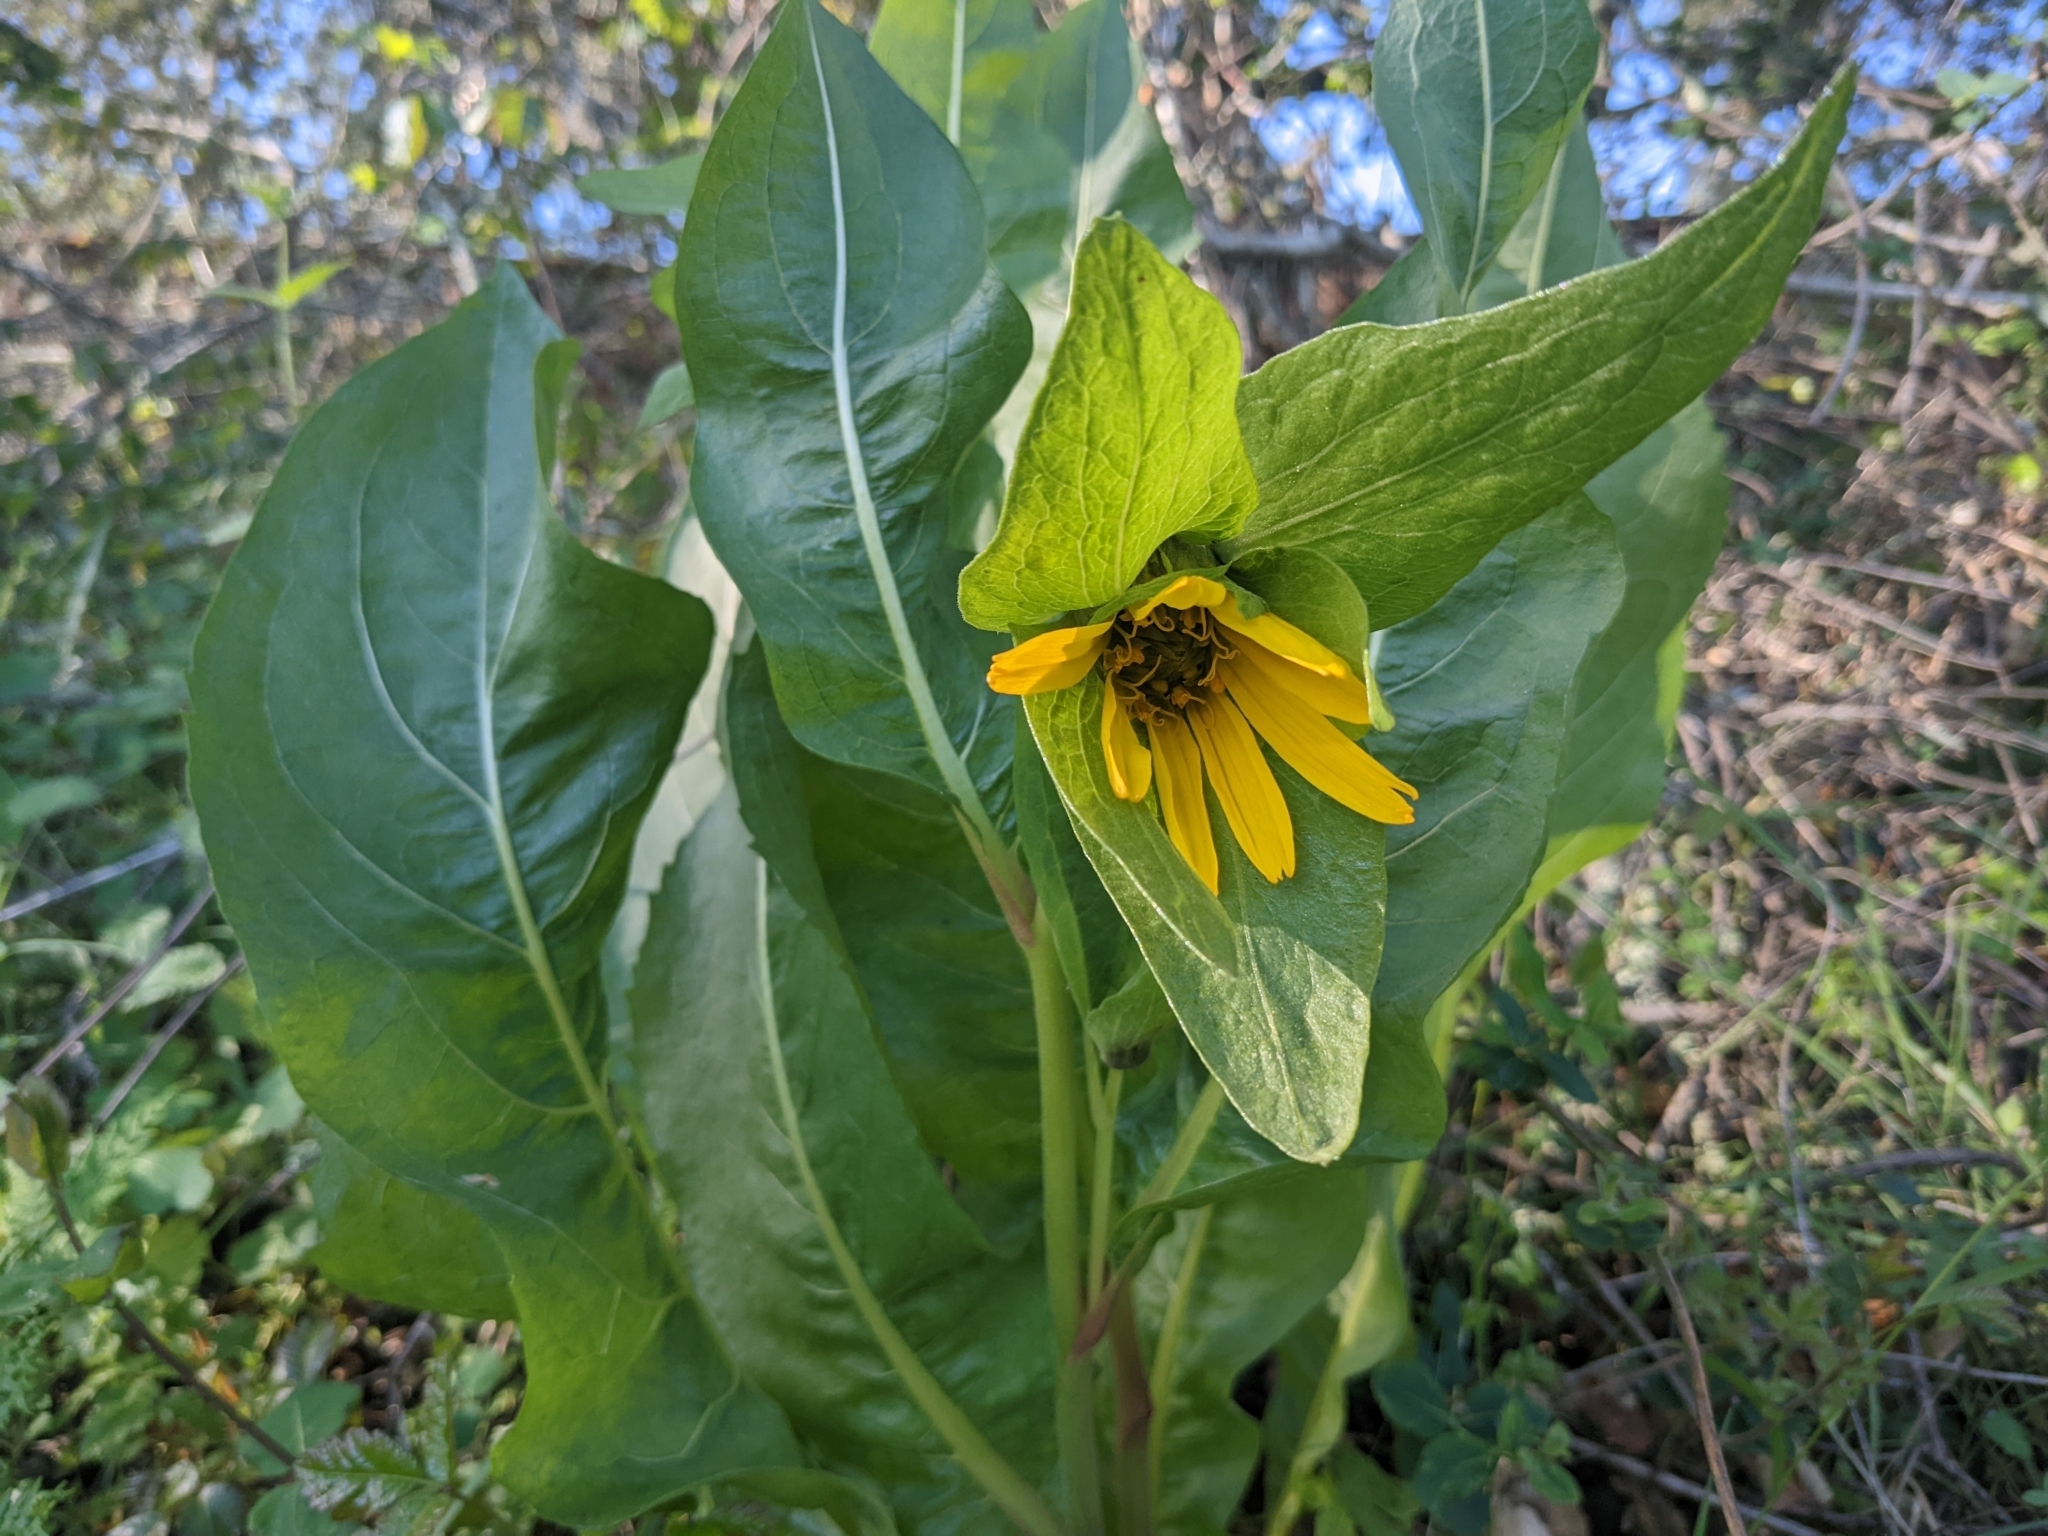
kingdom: Plantae
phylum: Tracheophyta
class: Magnoliopsida
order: Asterales
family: Asteraceae
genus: Wyethia
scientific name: Wyethia glabra
